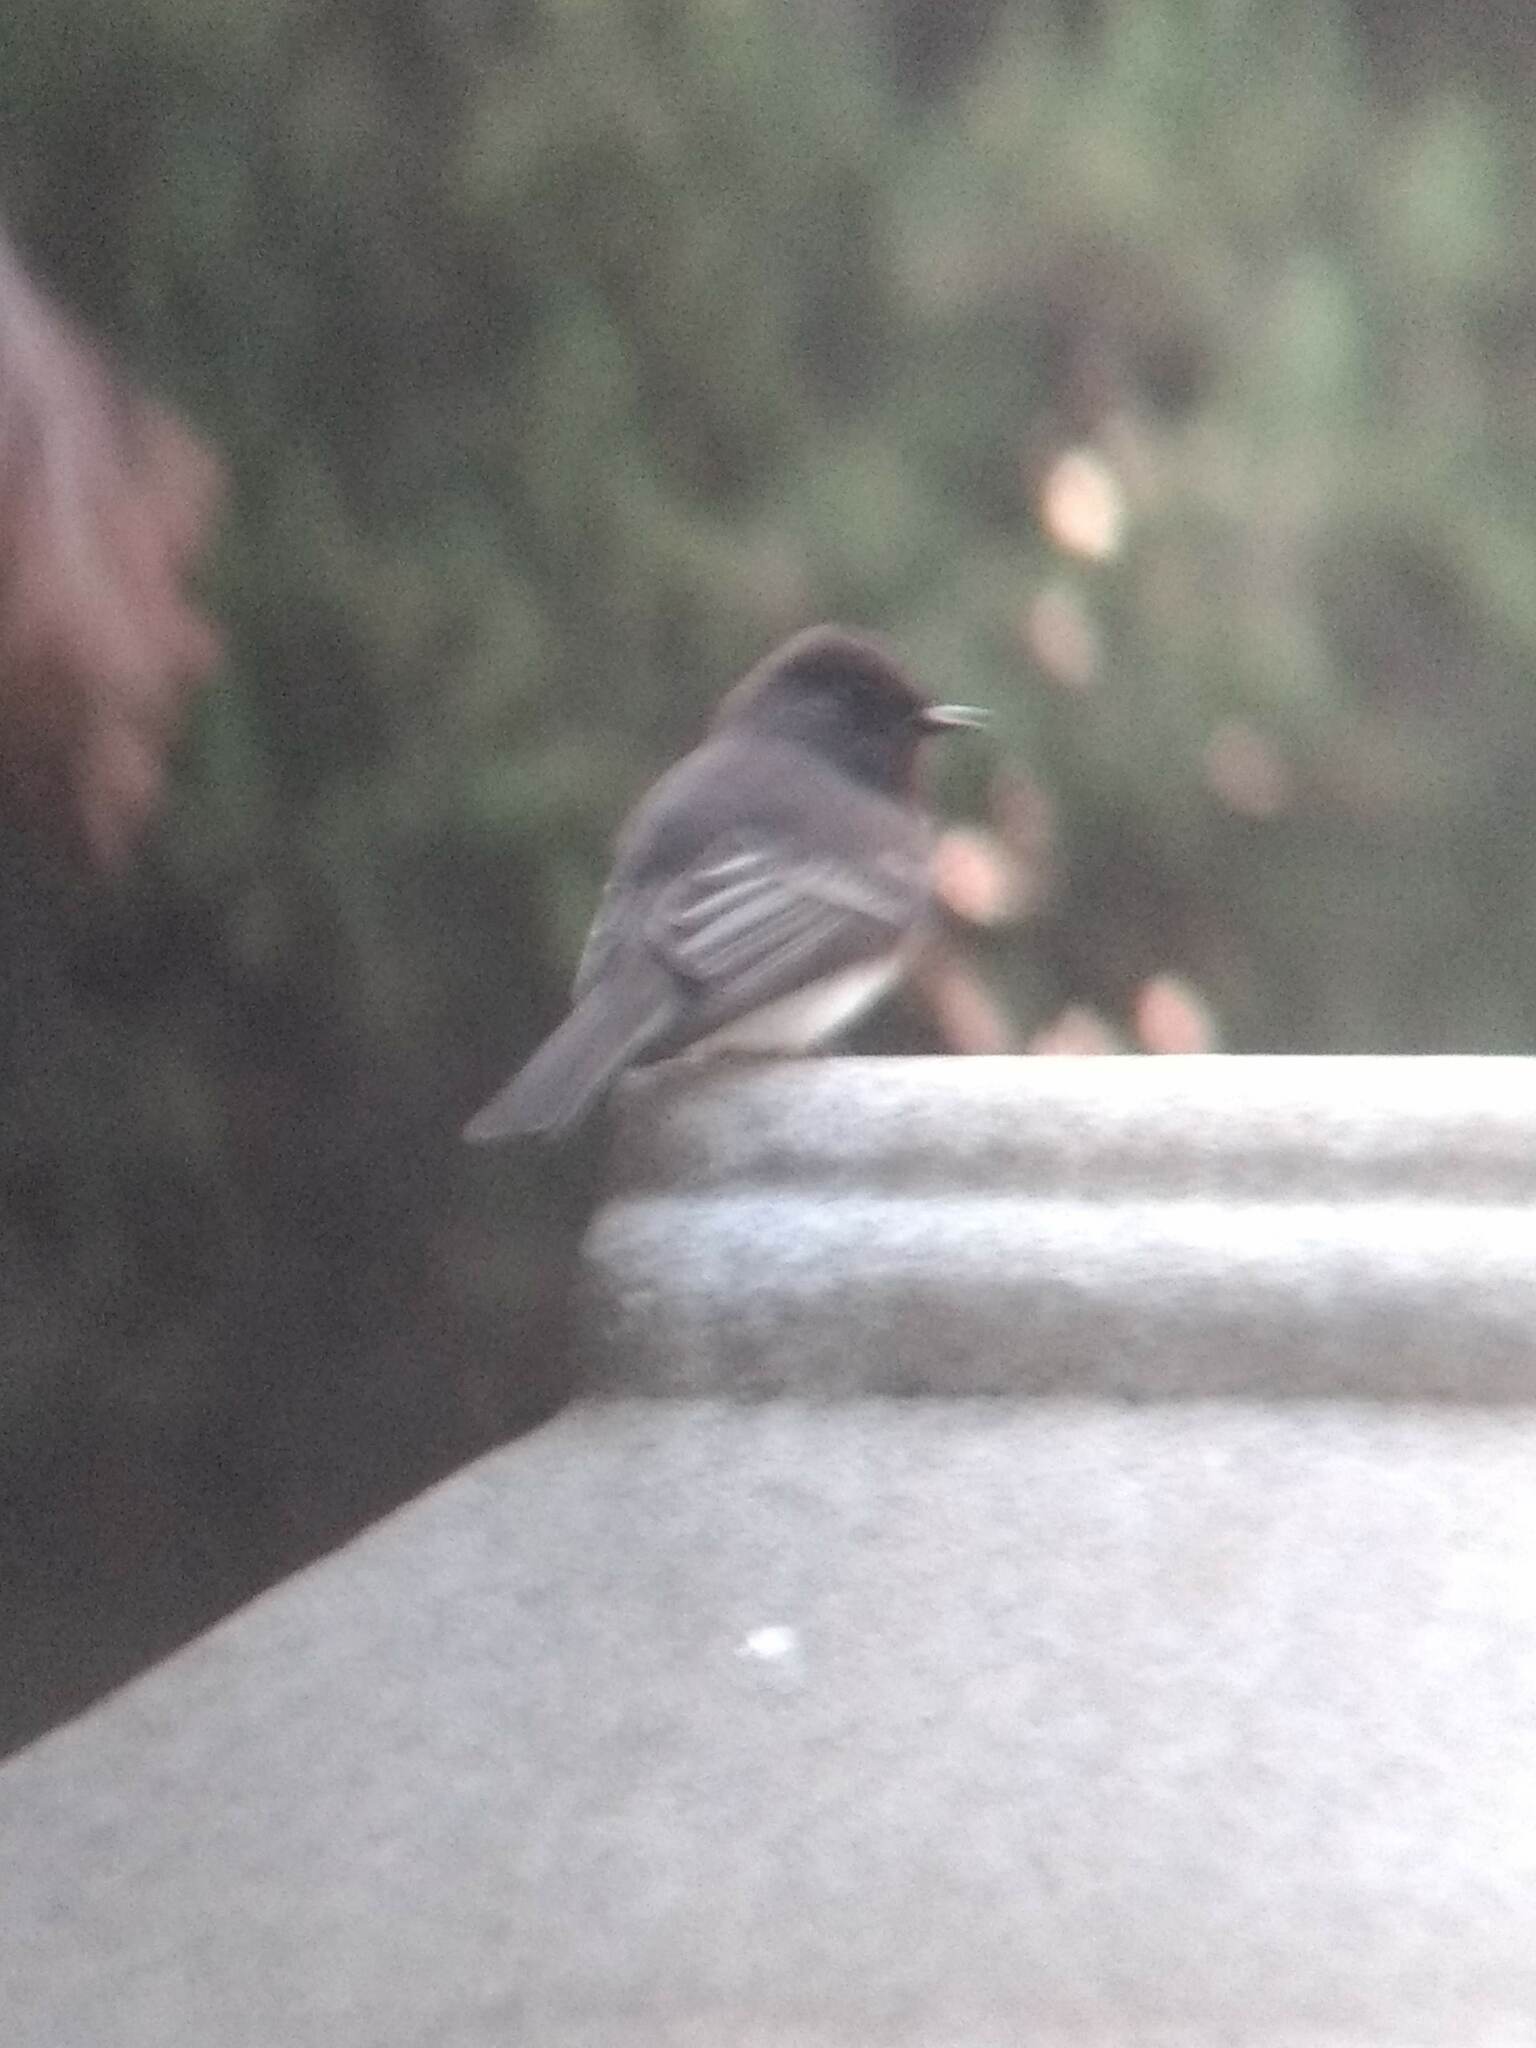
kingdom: Animalia
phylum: Chordata
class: Aves
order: Passeriformes
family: Tyrannidae
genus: Sayornis
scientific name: Sayornis nigricans
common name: Black phoebe
